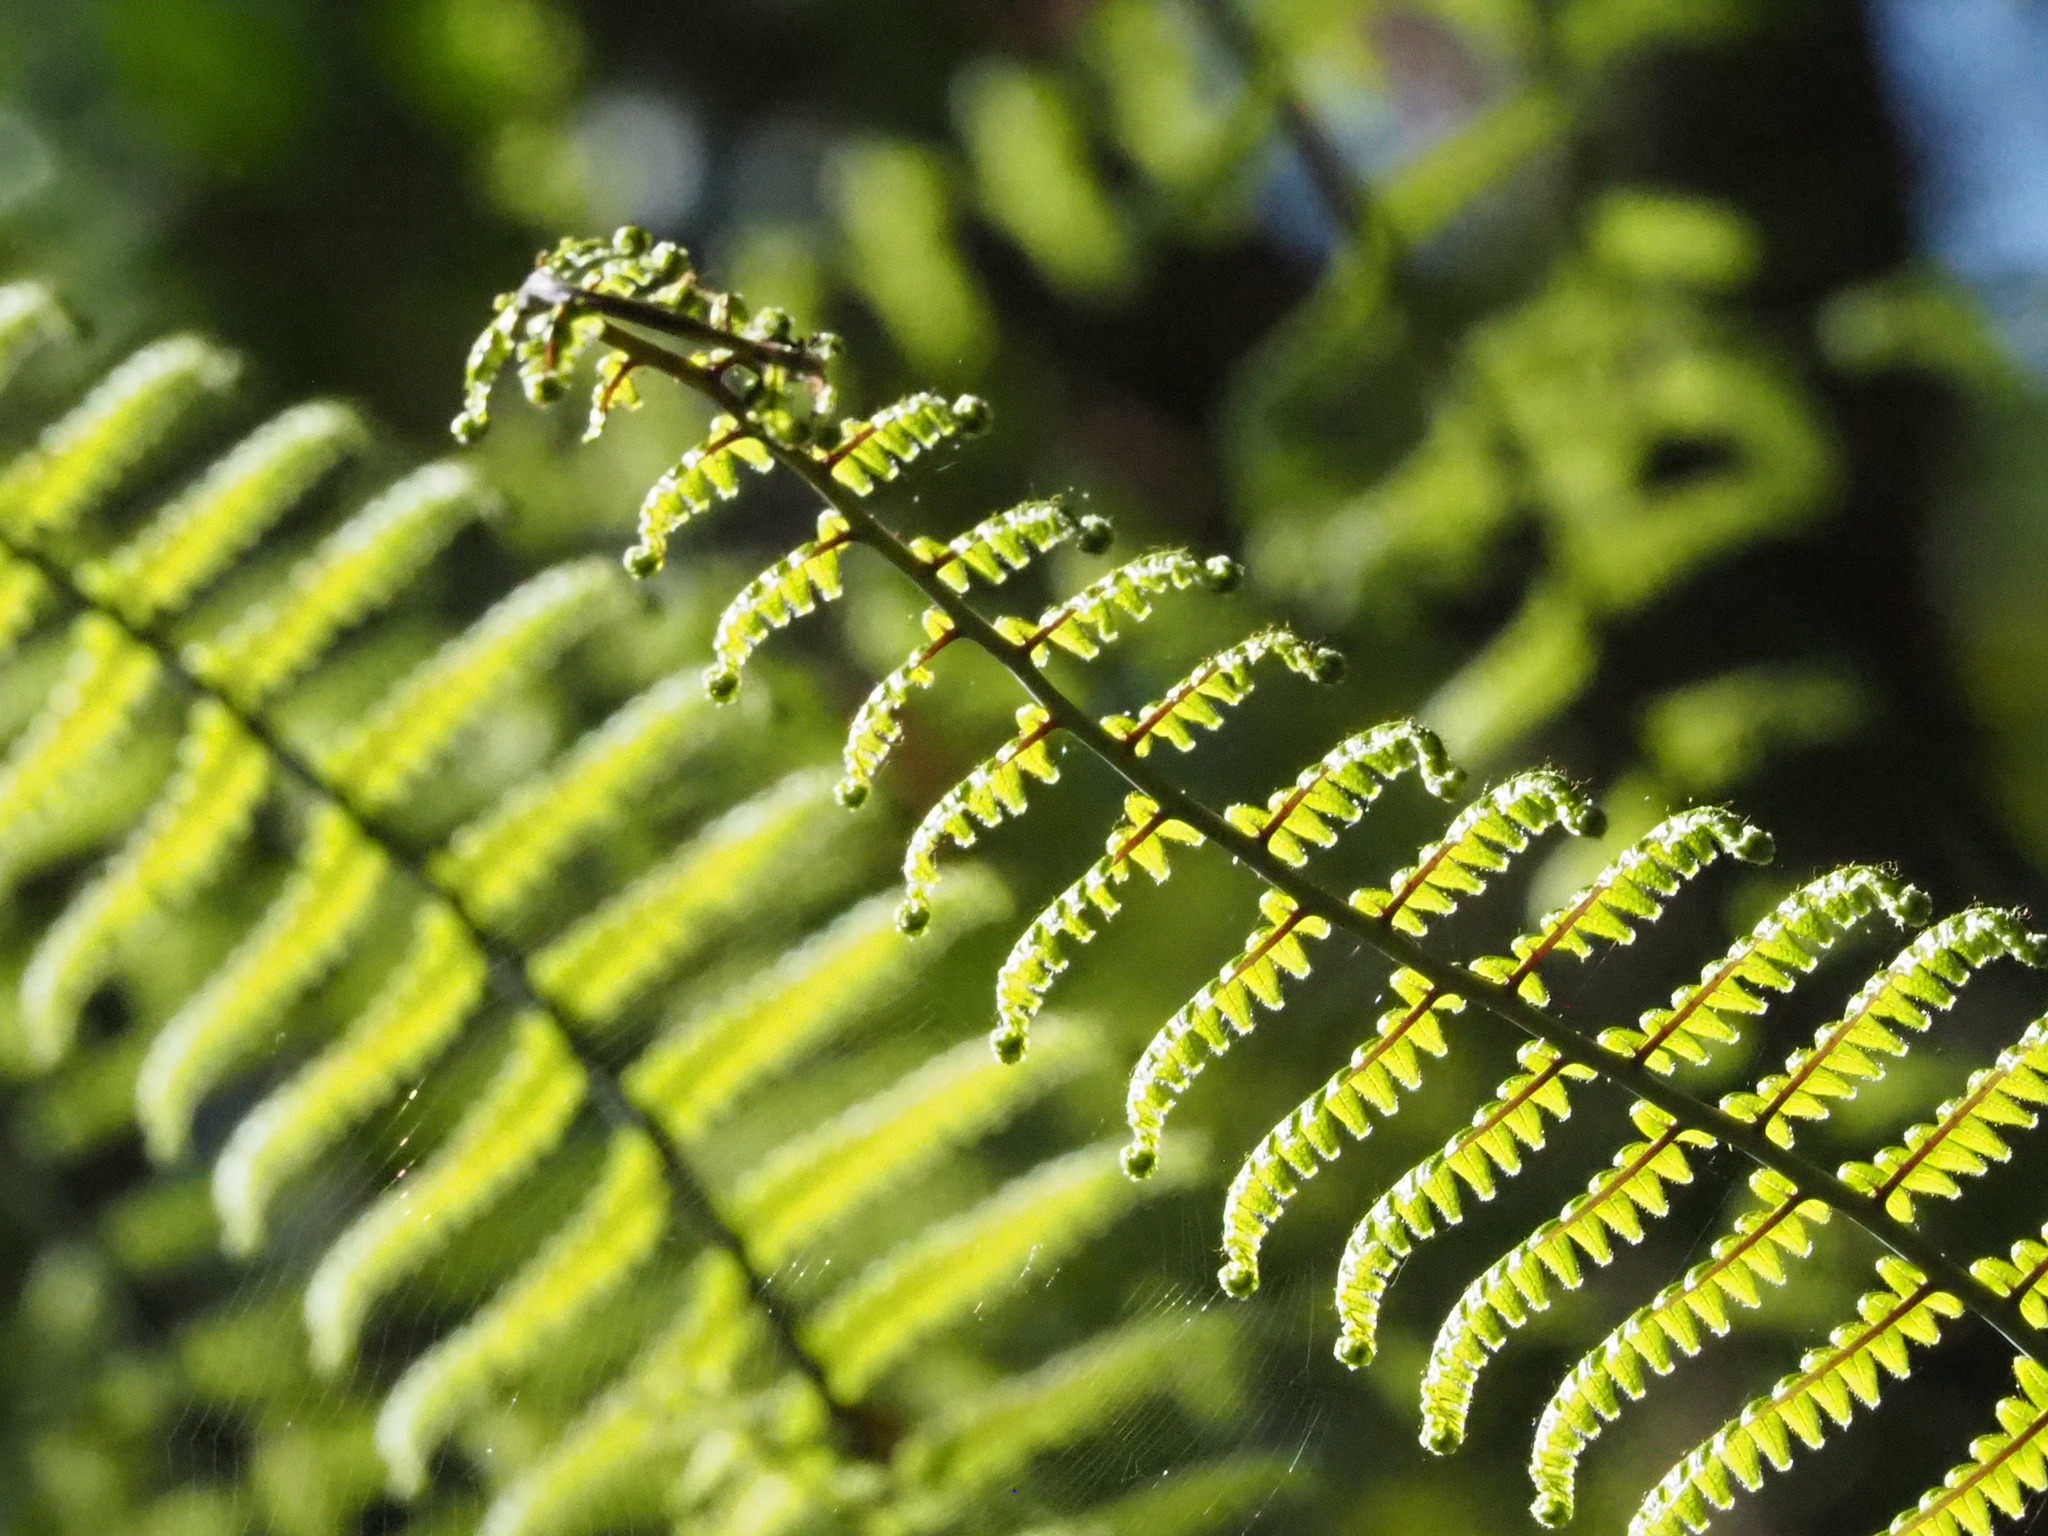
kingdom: Plantae
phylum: Tracheophyta
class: Polypodiopsida
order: Gleicheniales
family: Gleicheniaceae
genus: Diplopterygium
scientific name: Diplopterygium glaucum
